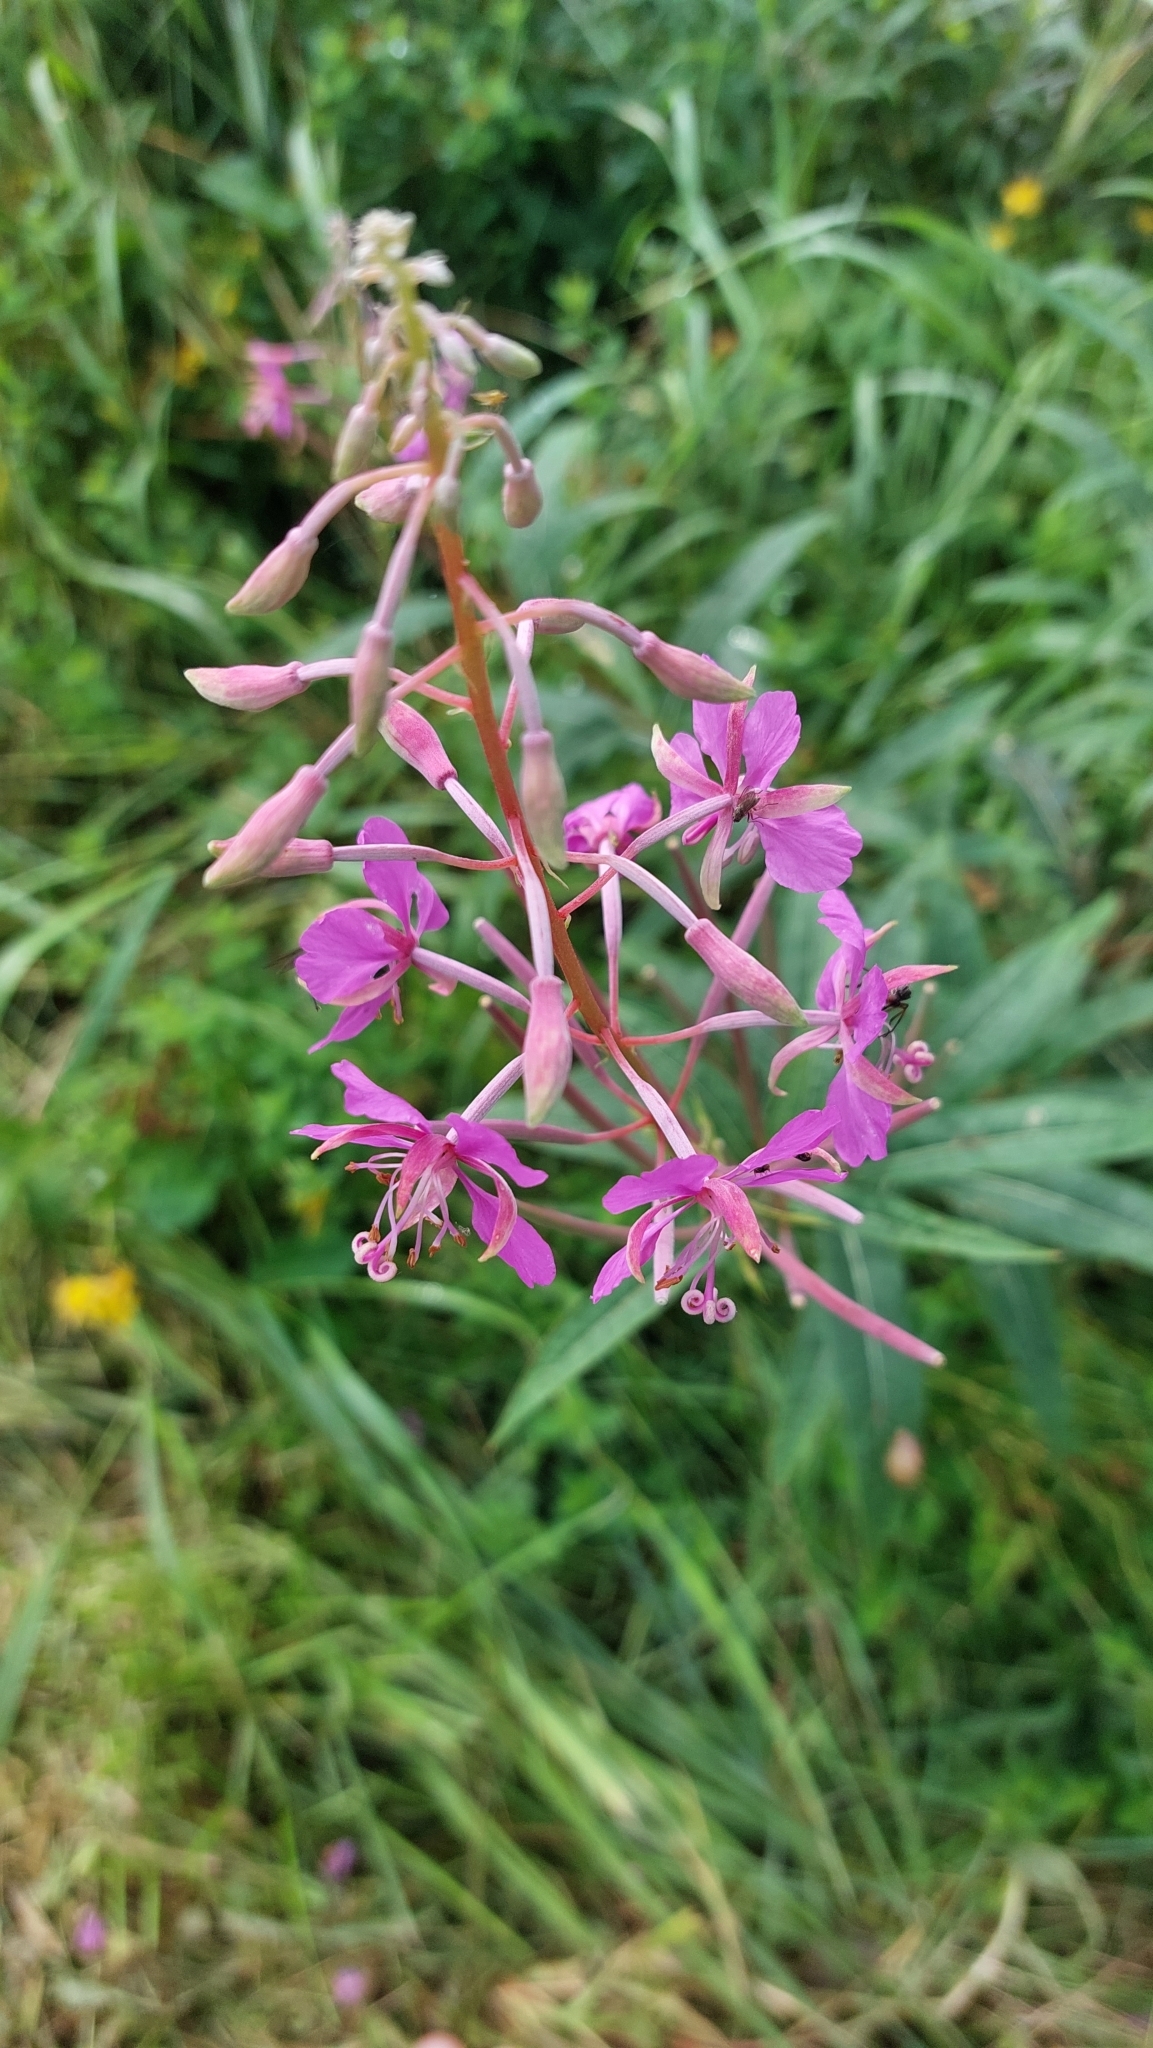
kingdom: Plantae
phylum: Tracheophyta
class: Magnoliopsida
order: Myrtales
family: Onagraceae
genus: Chamaenerion
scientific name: Chamaenerion angustifolium
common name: Fireweed
